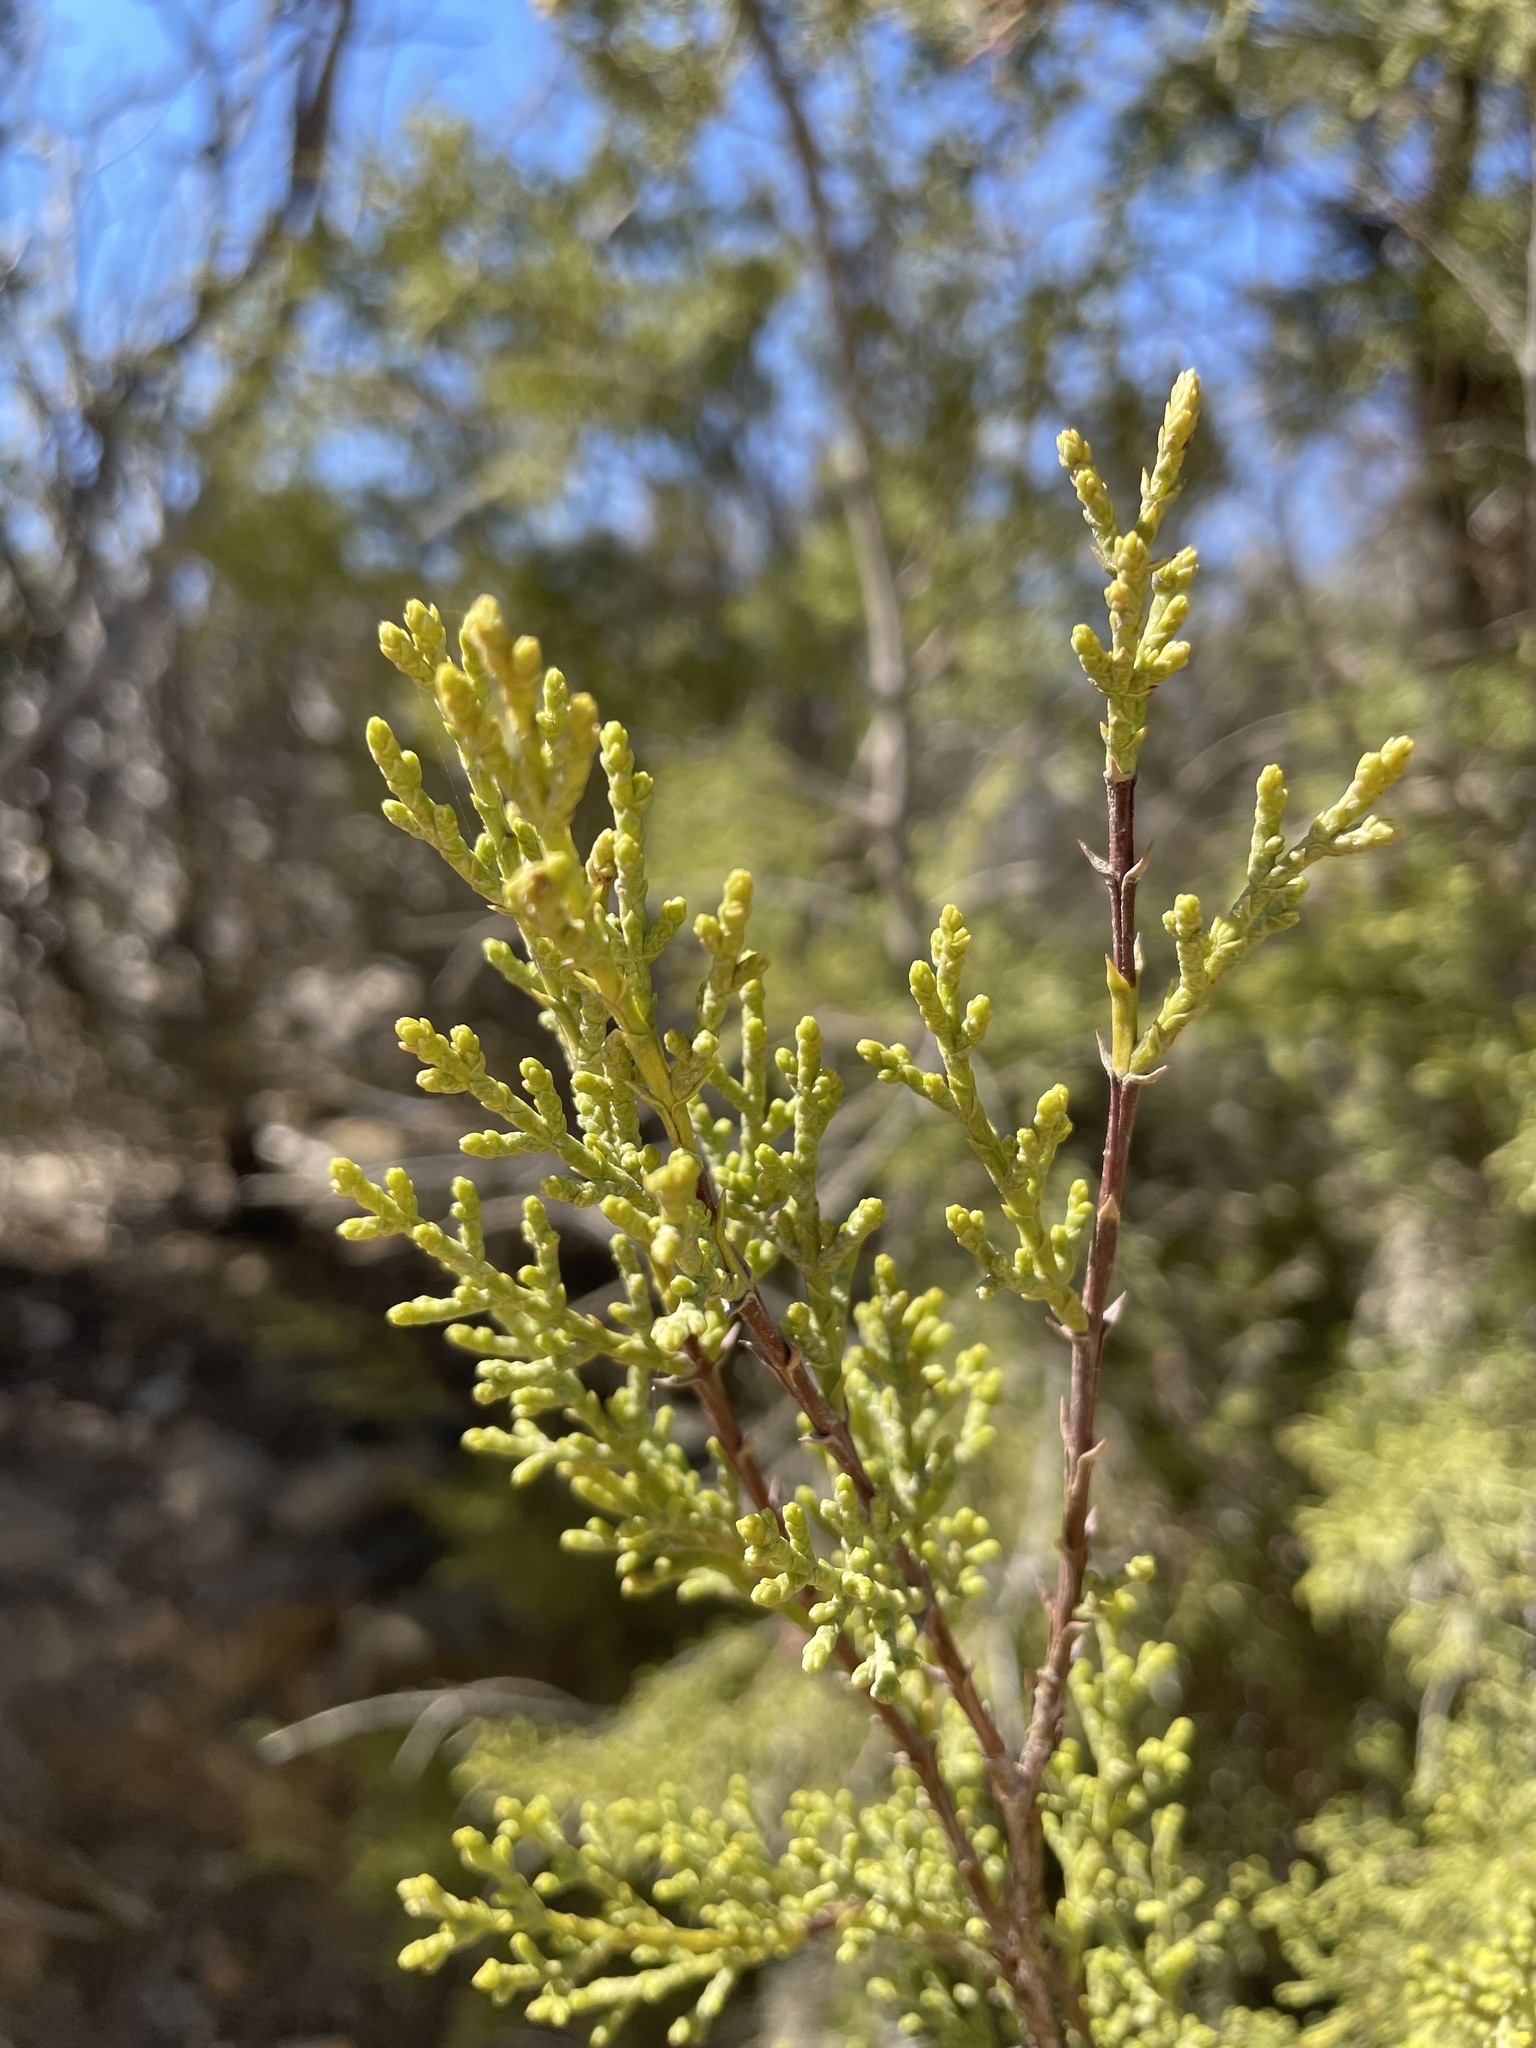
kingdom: Plantae
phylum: Tracheophyta
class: Pinopsida
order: Pinales
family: Cupressaceae
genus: Cupressus
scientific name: Cupressus guadalupensis
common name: Forbes cypress
